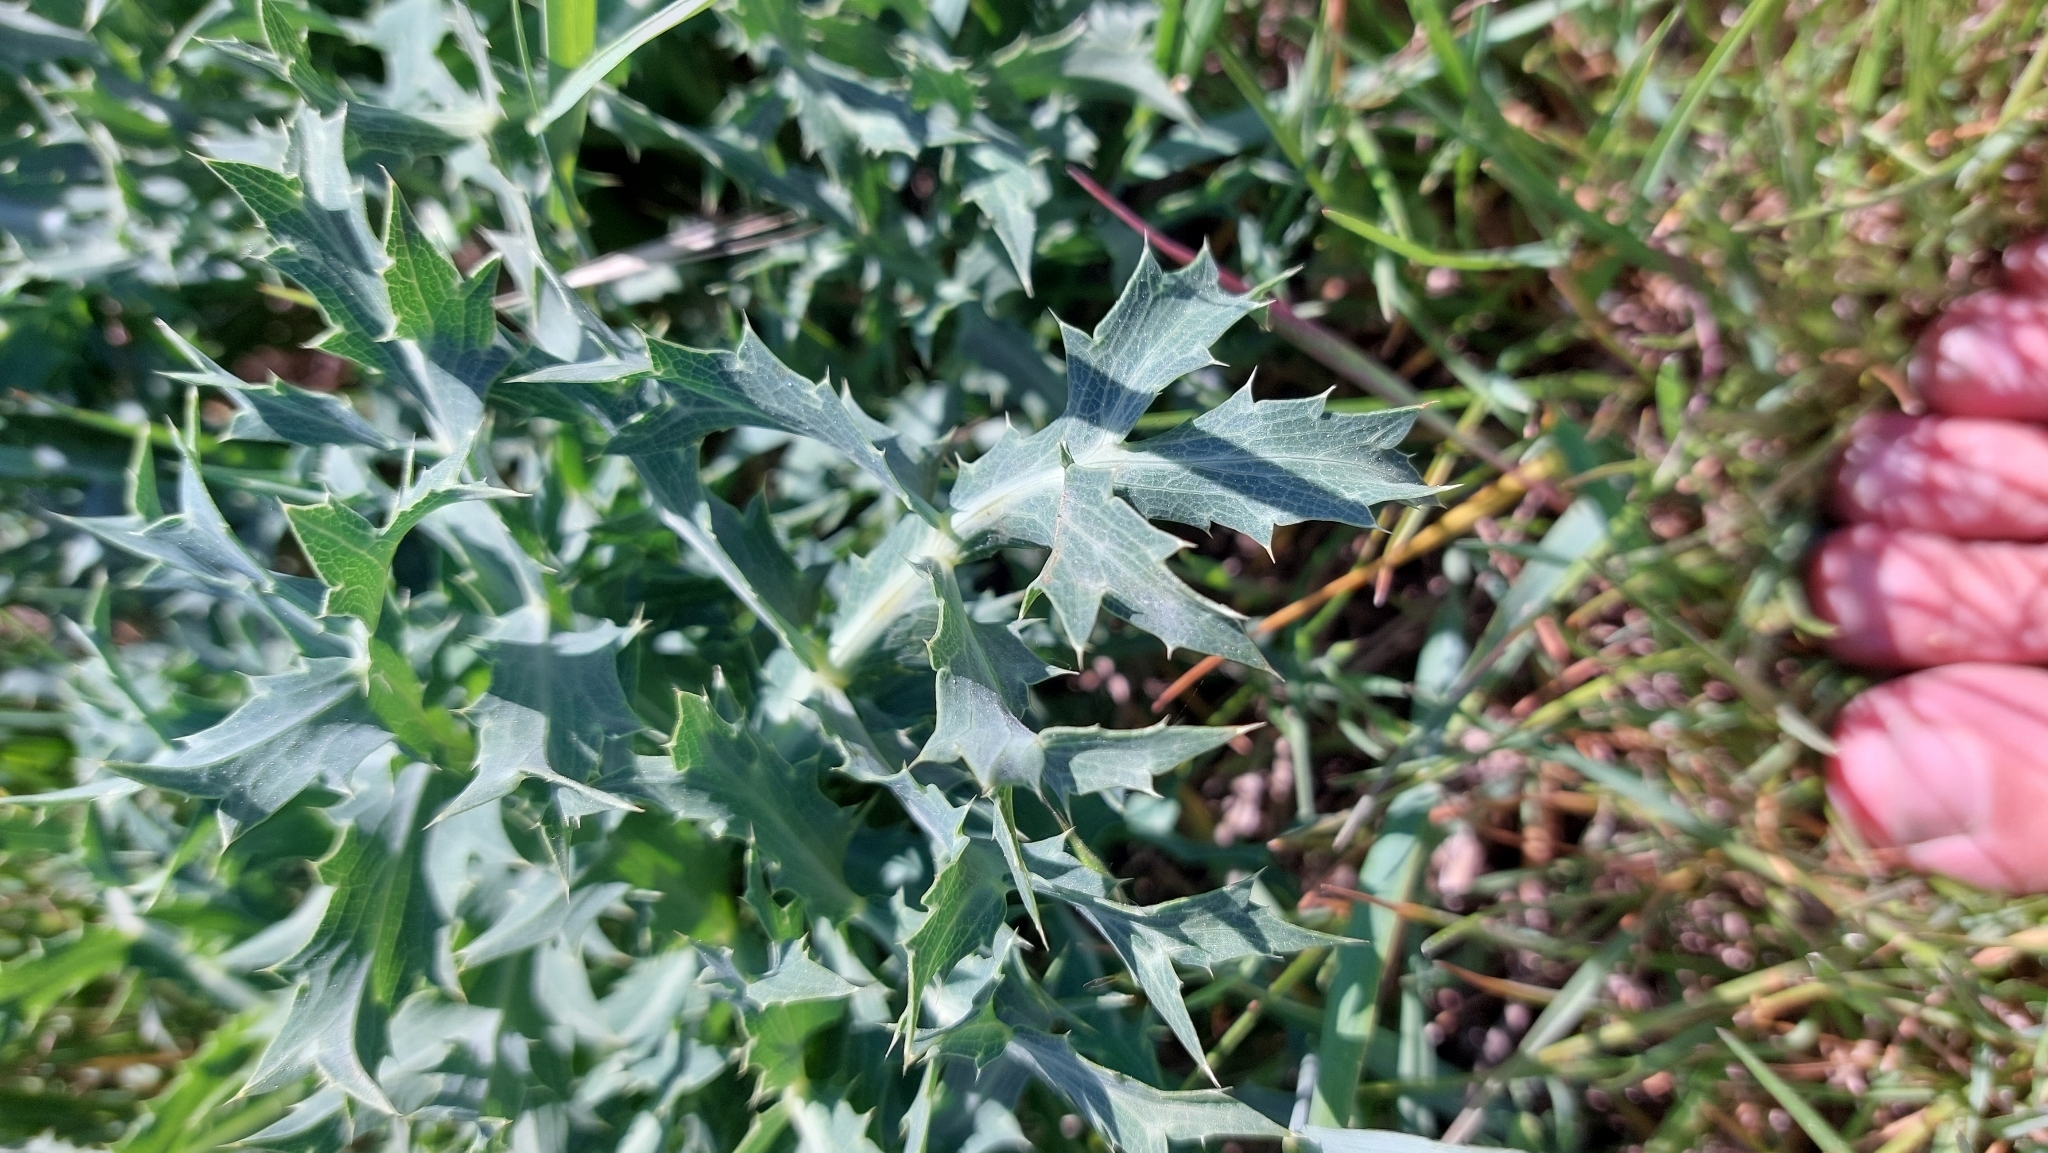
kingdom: Plantae
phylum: Tracheophyta
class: Magnoliopsida
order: Apiales
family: Apiaceae
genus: Eryngium
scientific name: Eryngium campestre
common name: Field eryngo
